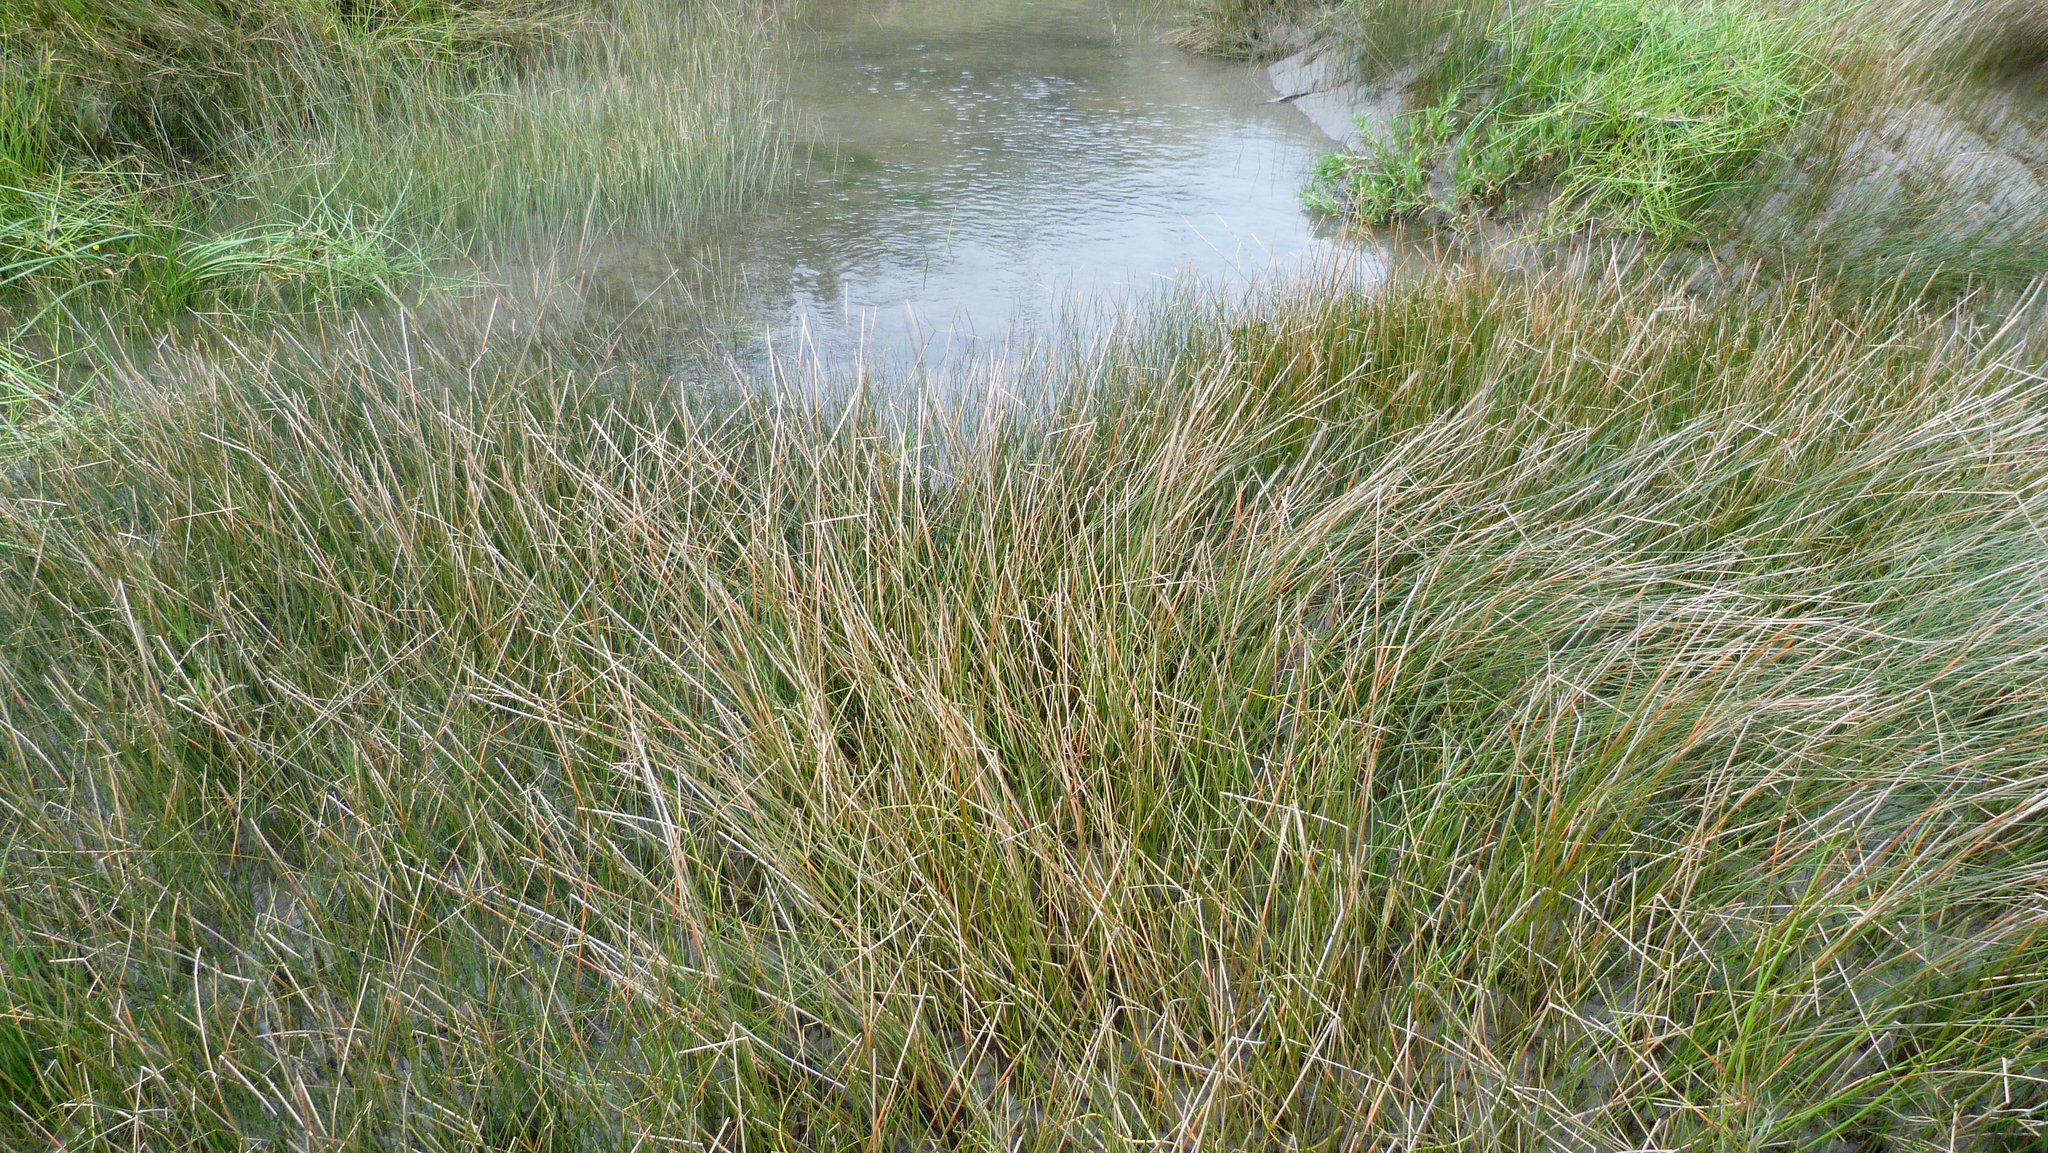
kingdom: Plantae
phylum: Tracheophyta
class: Liliopsida
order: Poales
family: Cyperaceae
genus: Eleocharis
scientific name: Eleocharis acuta
